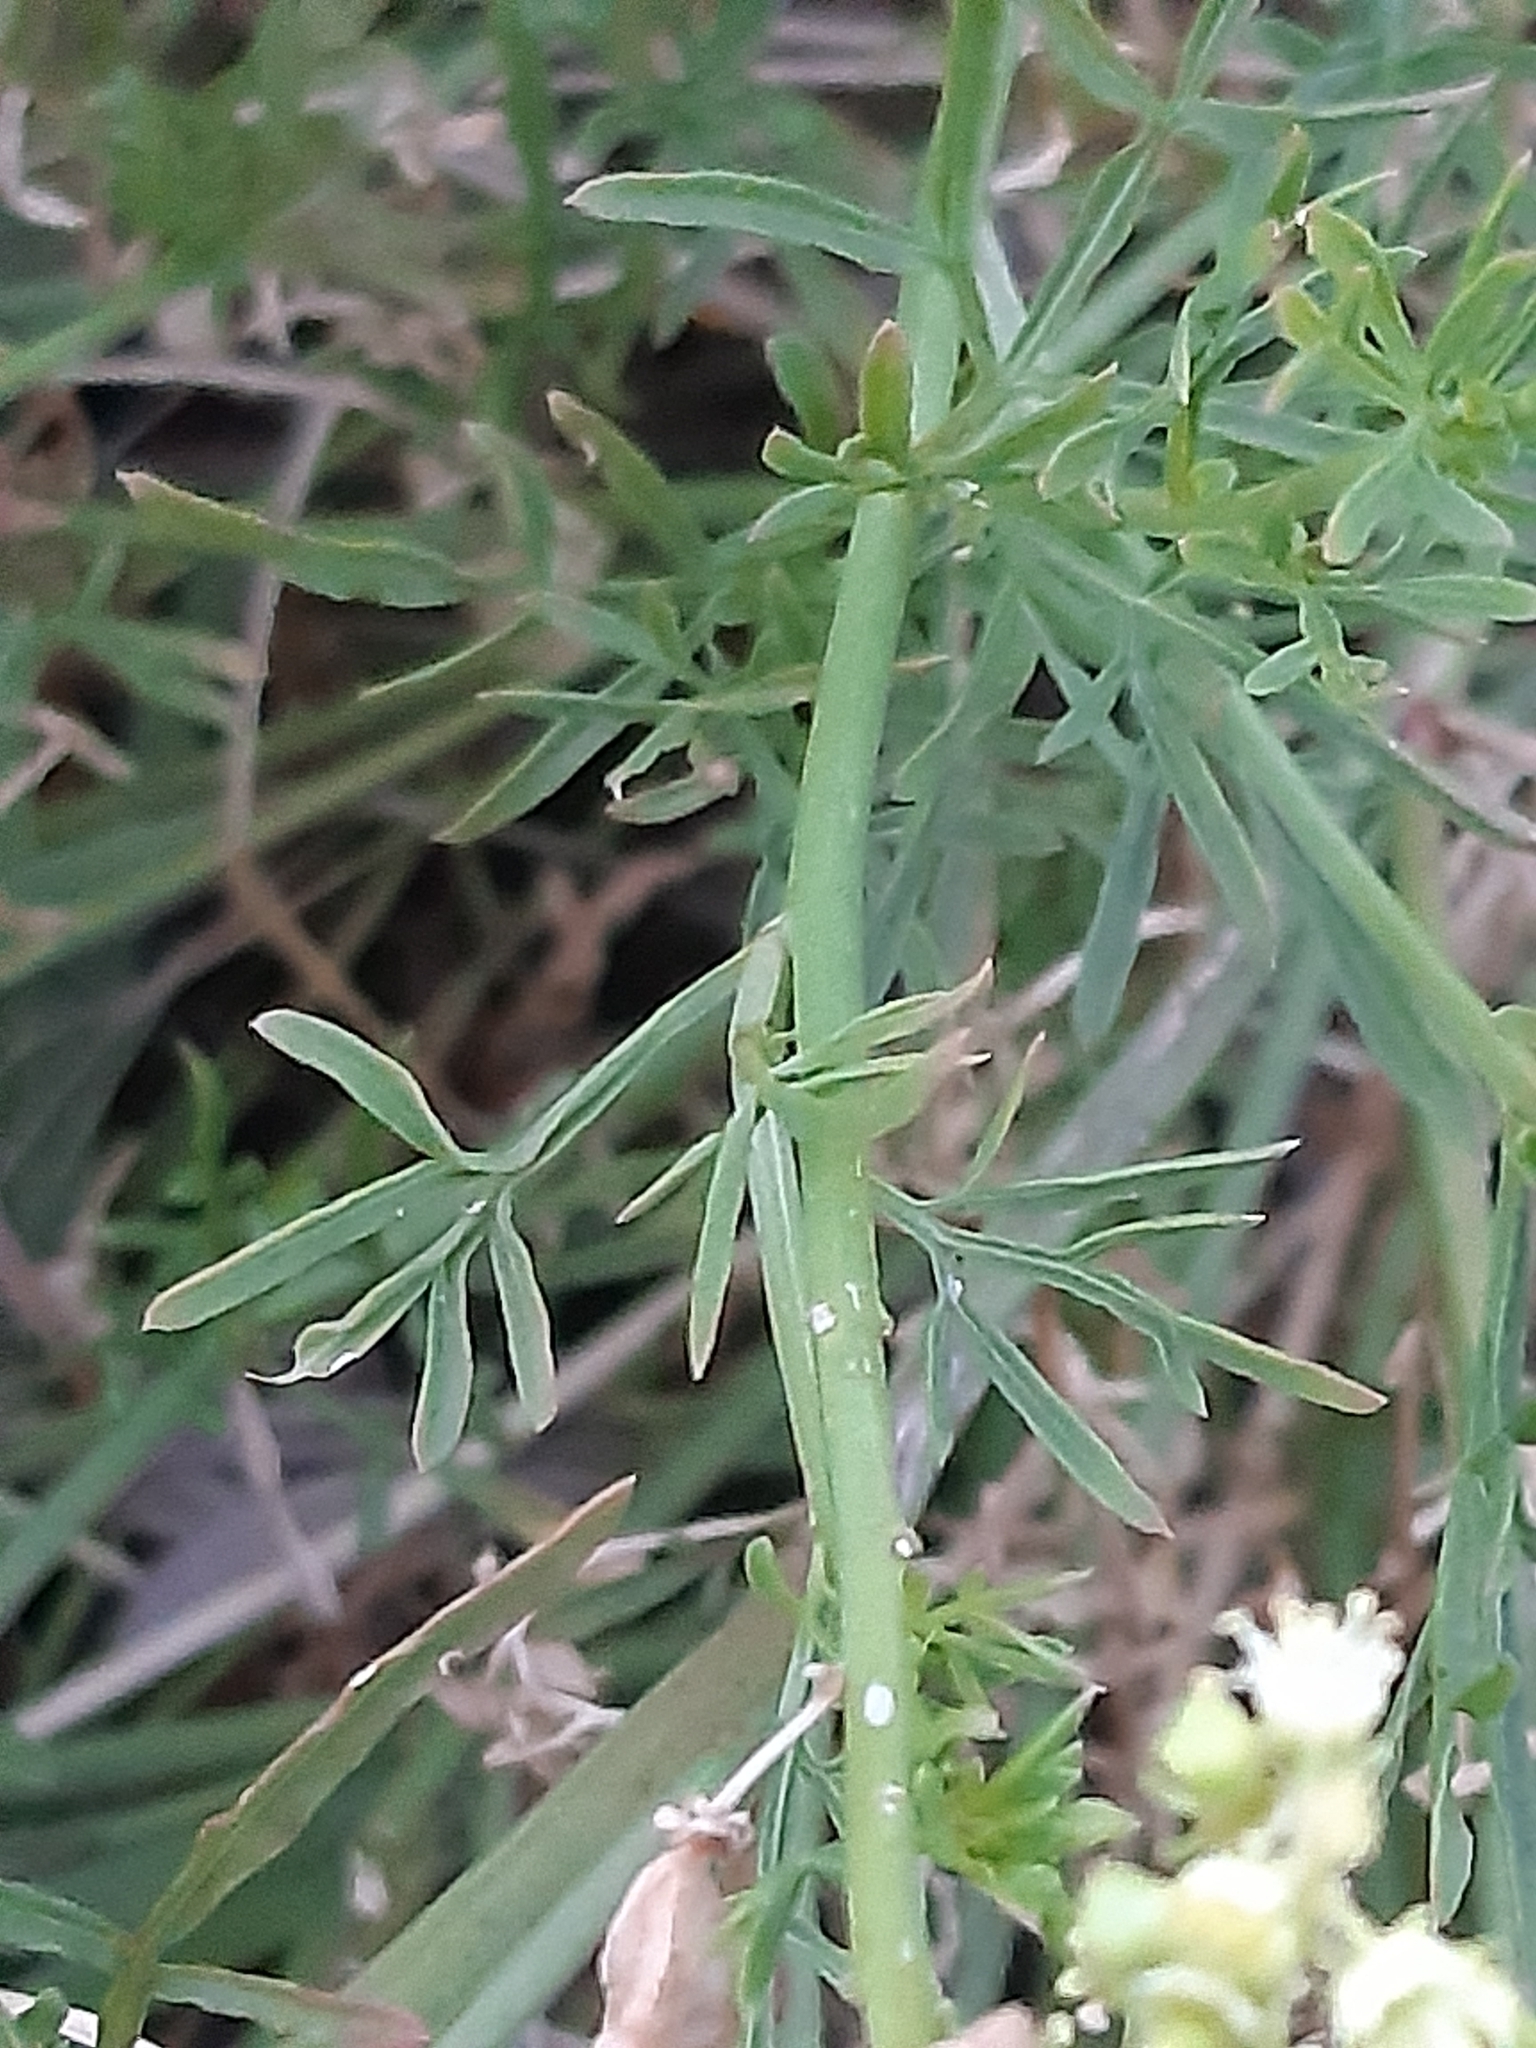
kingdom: Plantae
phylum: Tracheophyta
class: Magnoliopsida
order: Brassicales
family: Resedaceae
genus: Reseda
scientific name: Reseda lutea
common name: Wild mignonette
